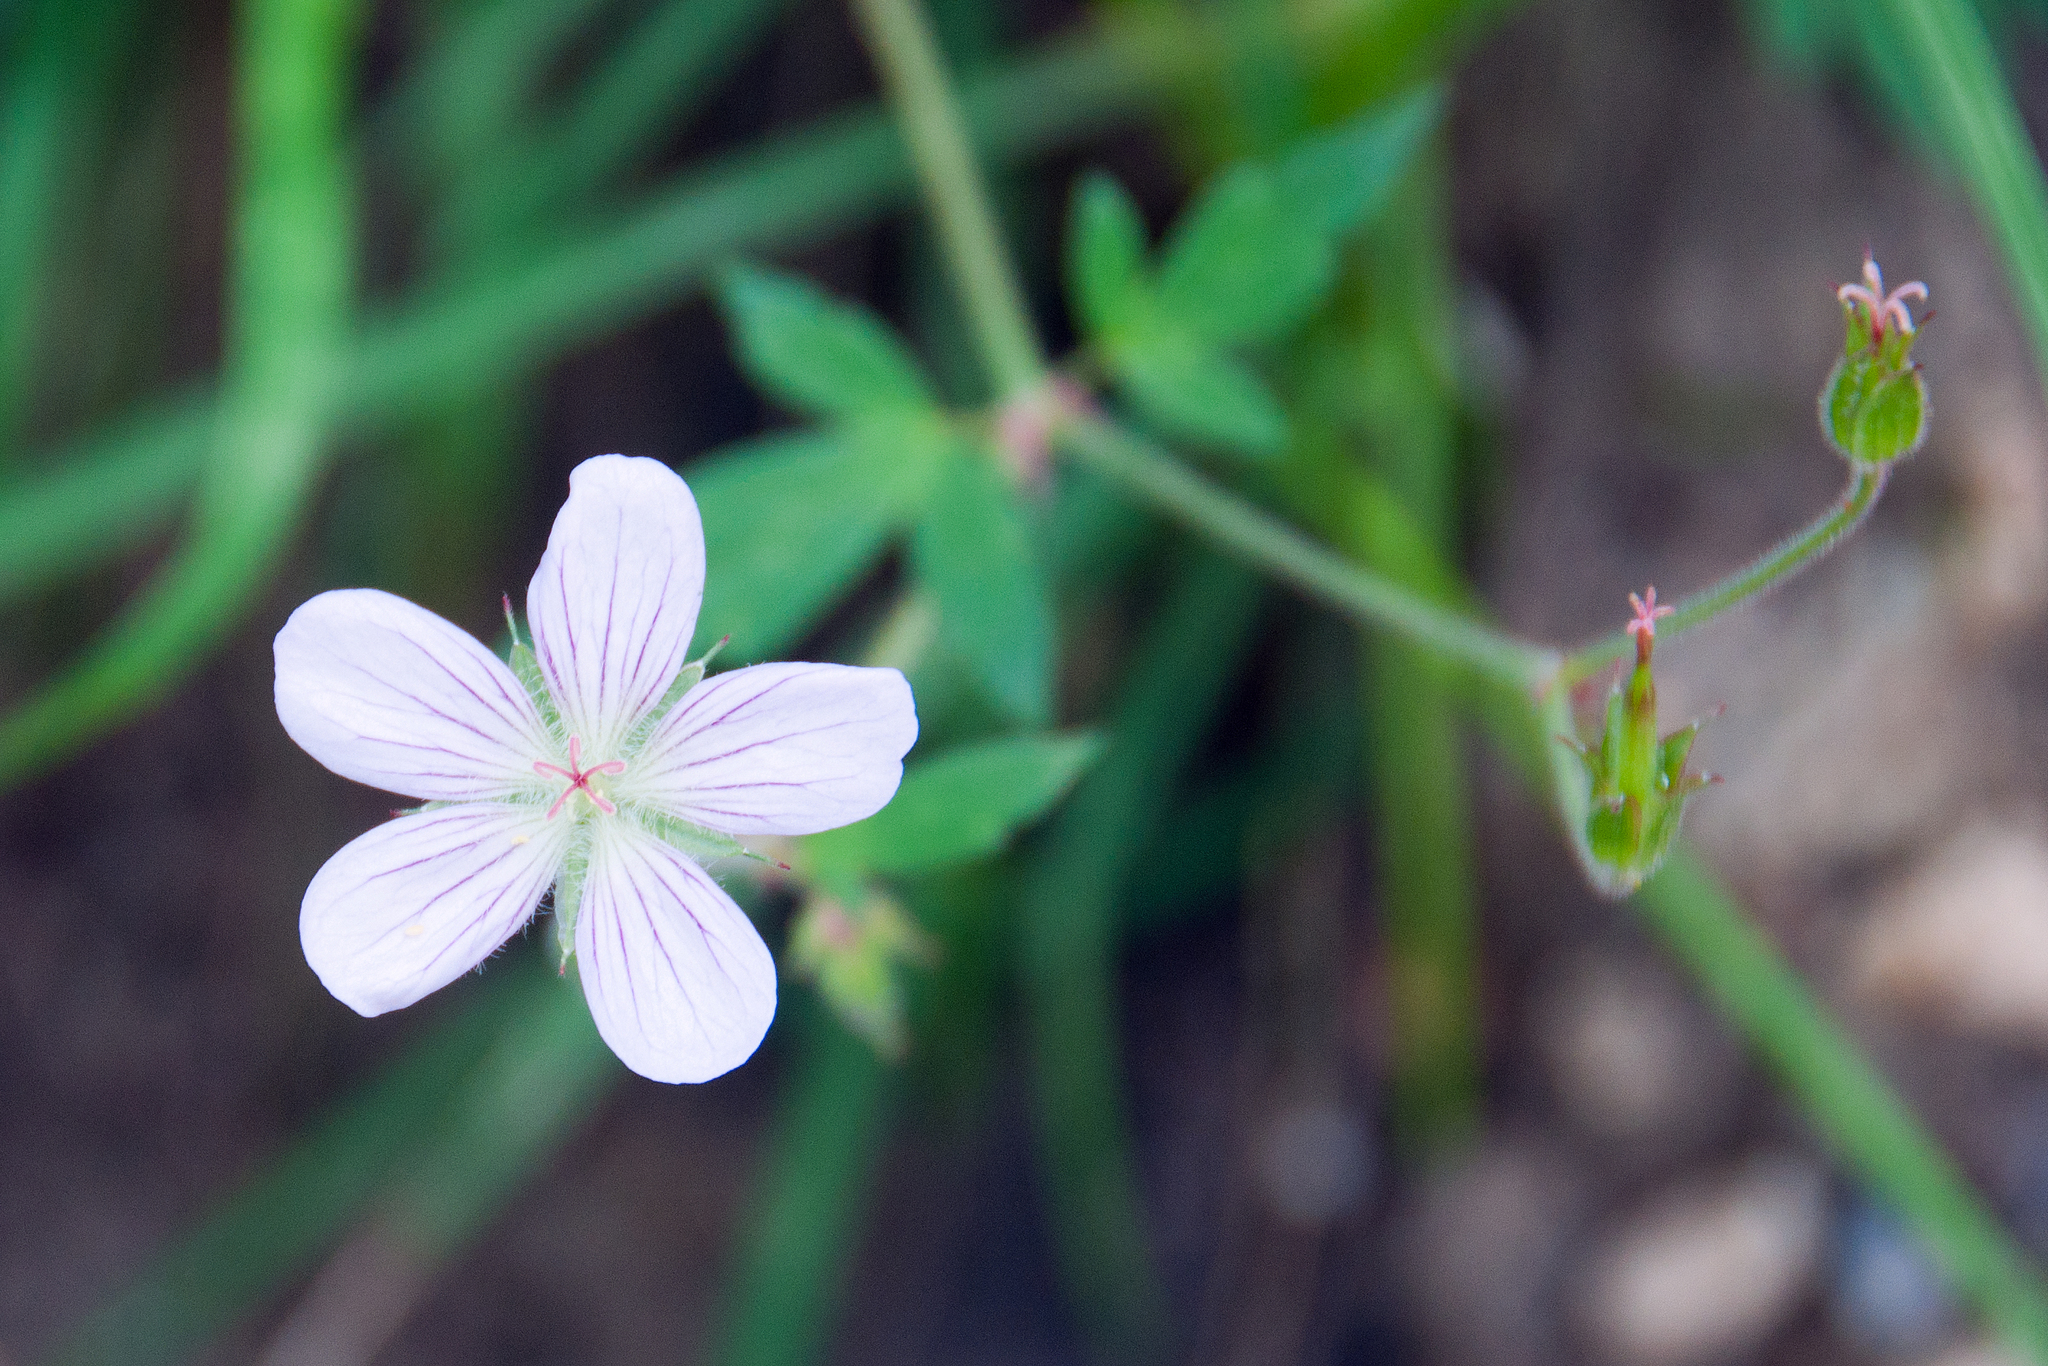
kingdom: Plantae
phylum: Tracheophyta
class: Magnoliopsida
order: Geraniales
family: Geraniaceae
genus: Geranium
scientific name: Geranium richardsonii
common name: Richardson's crane's-bill
